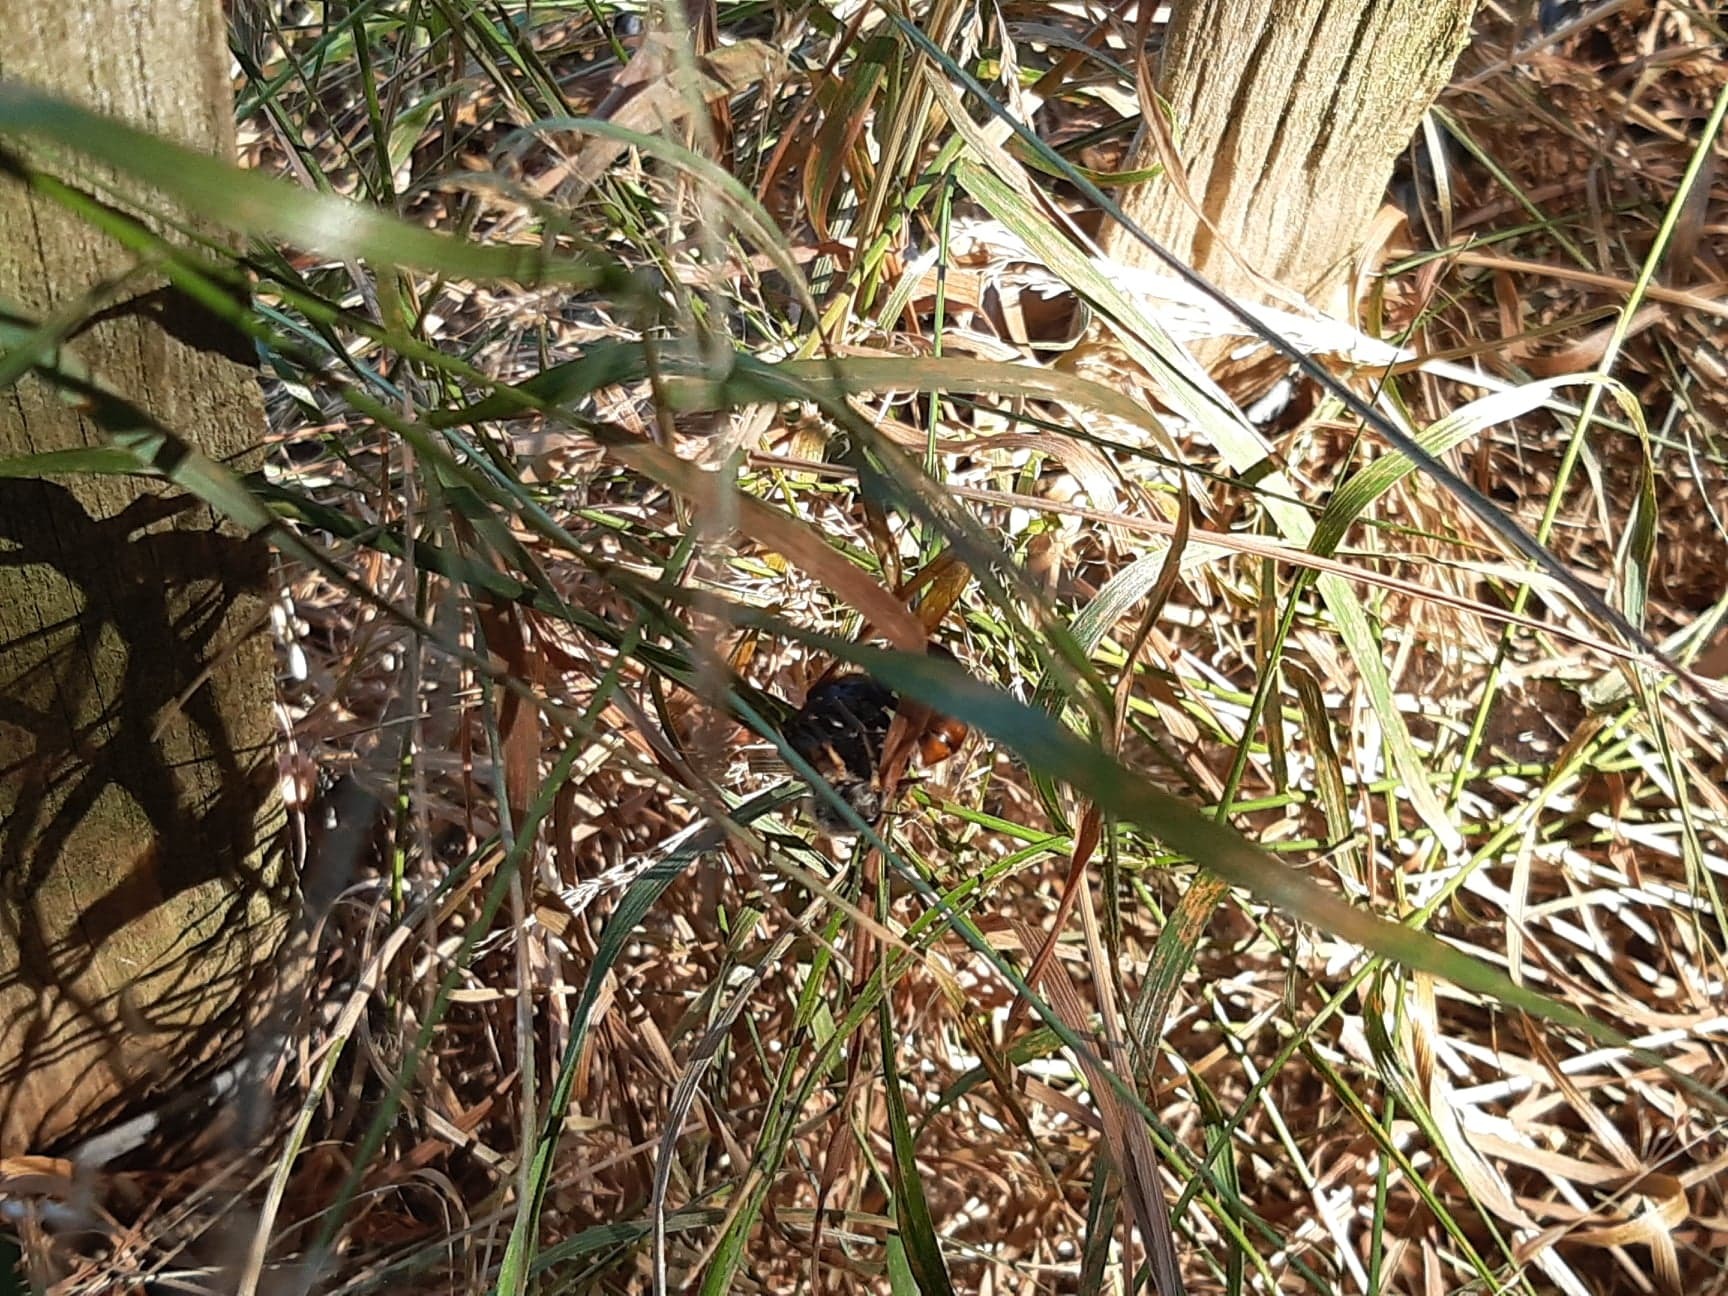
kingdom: Animalia
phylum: Arthropoda
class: Insecta
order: Hymenoptera
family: Vespidae
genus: Vespa
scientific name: Vespa velutina
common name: Asian hornet
